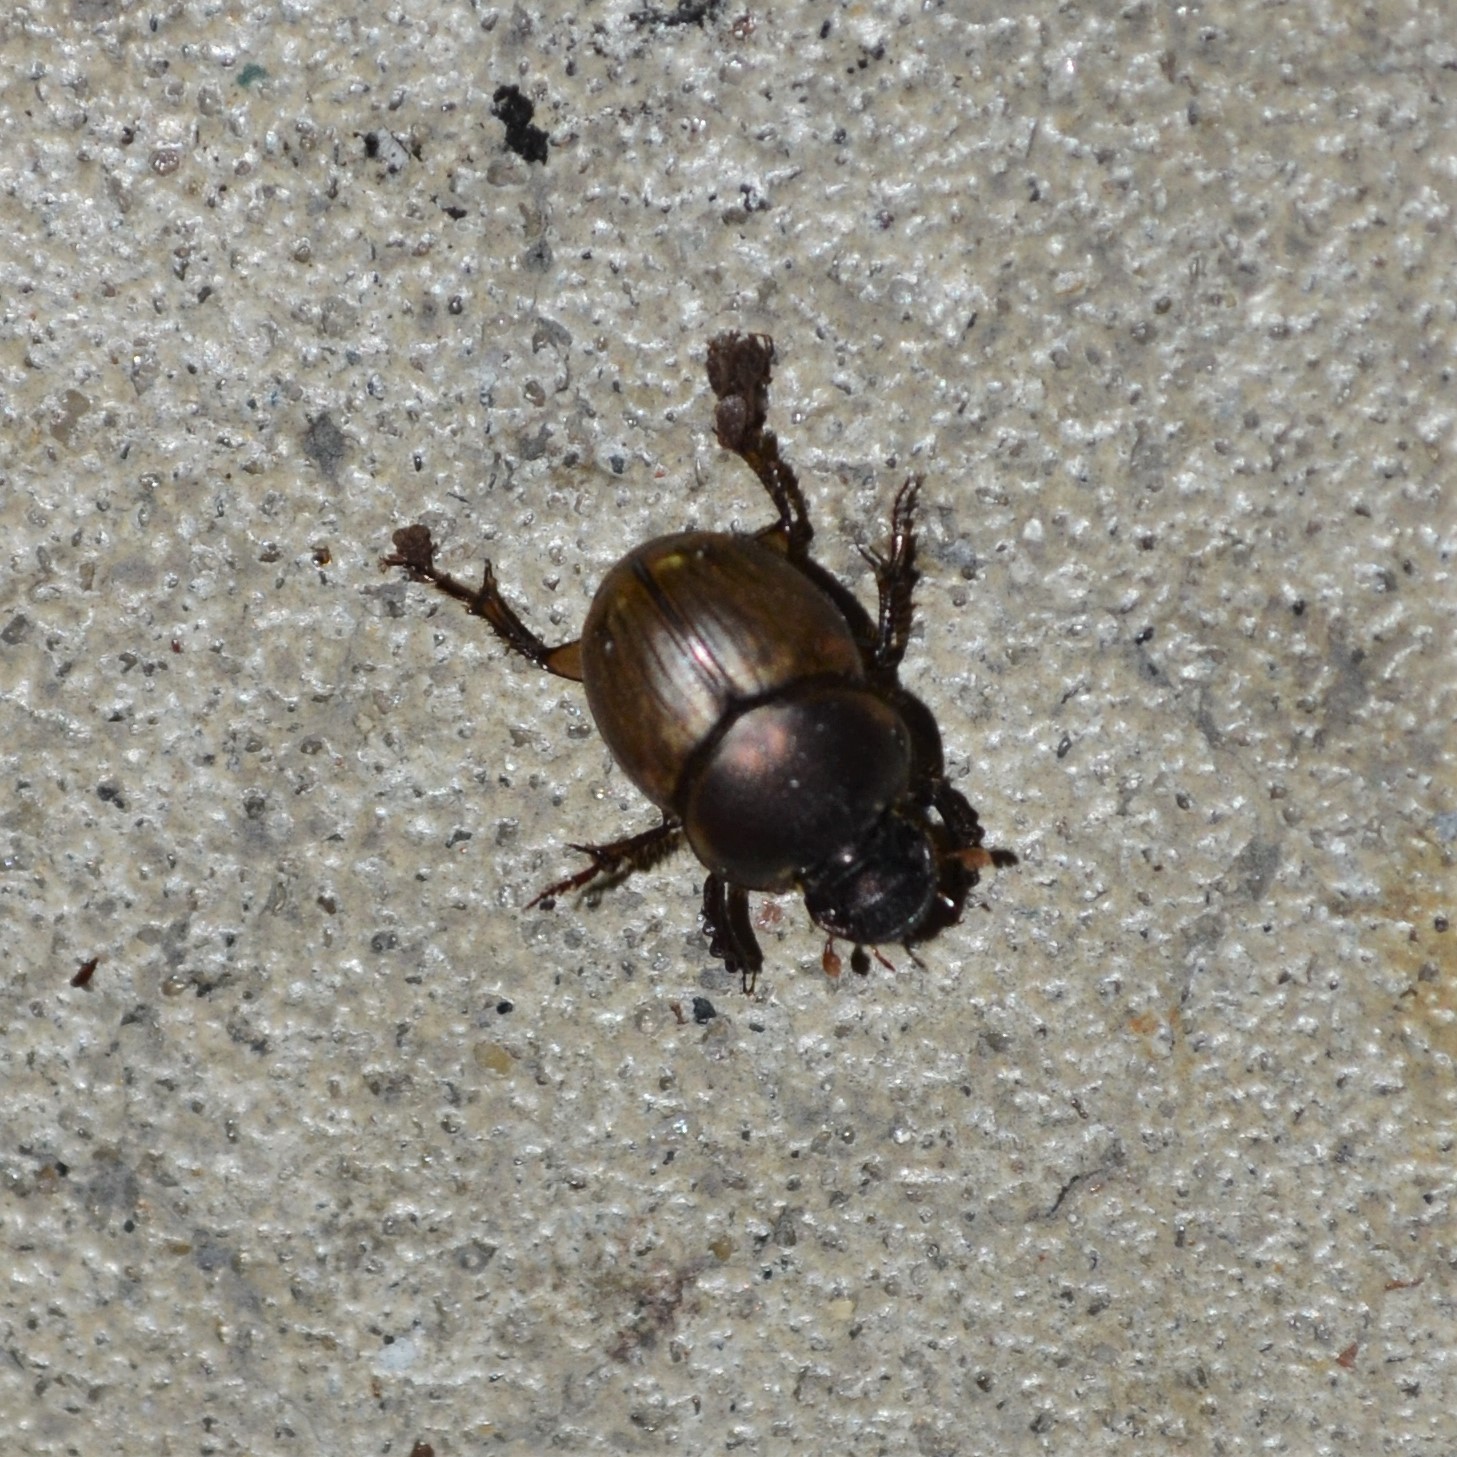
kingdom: Animalia
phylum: Arthropoda
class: Insecta
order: Coleoptera
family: Scarabaeidae
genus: Digitonthophagus
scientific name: Digitonthophagus gazella
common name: Brown dung beetle
